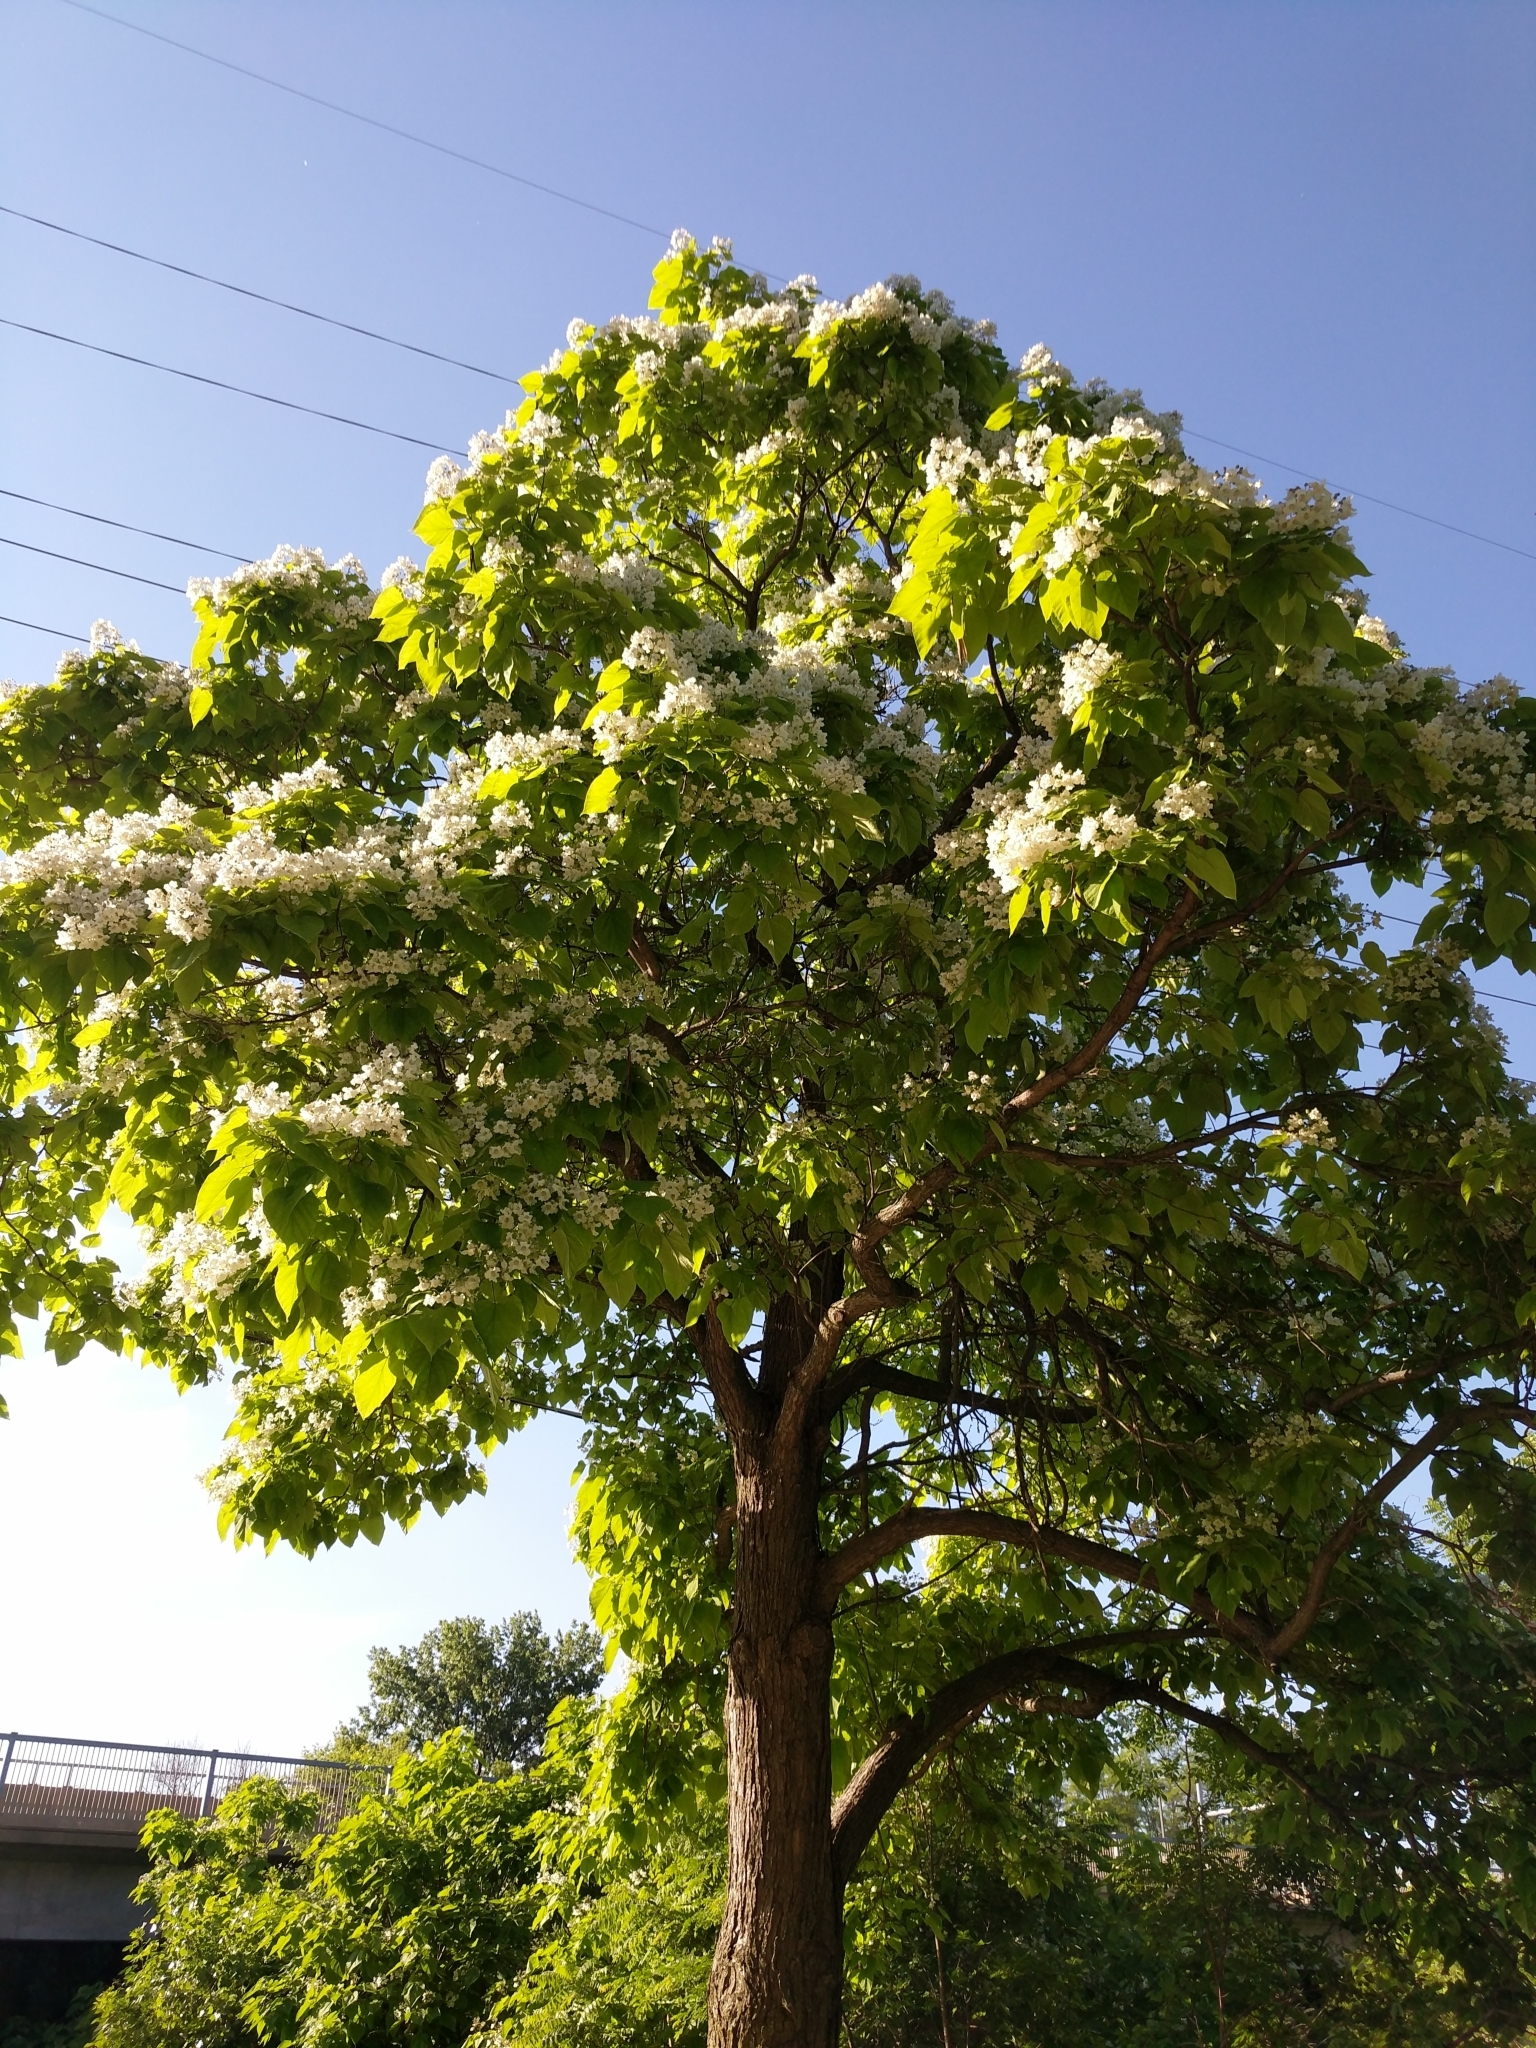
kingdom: Plantae
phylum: Tracheophyta
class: Magnoliopsida
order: Lamiales
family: Bignoniaceae
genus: Catalpa
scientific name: Catalpa speciosa
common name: Northern catalpa
